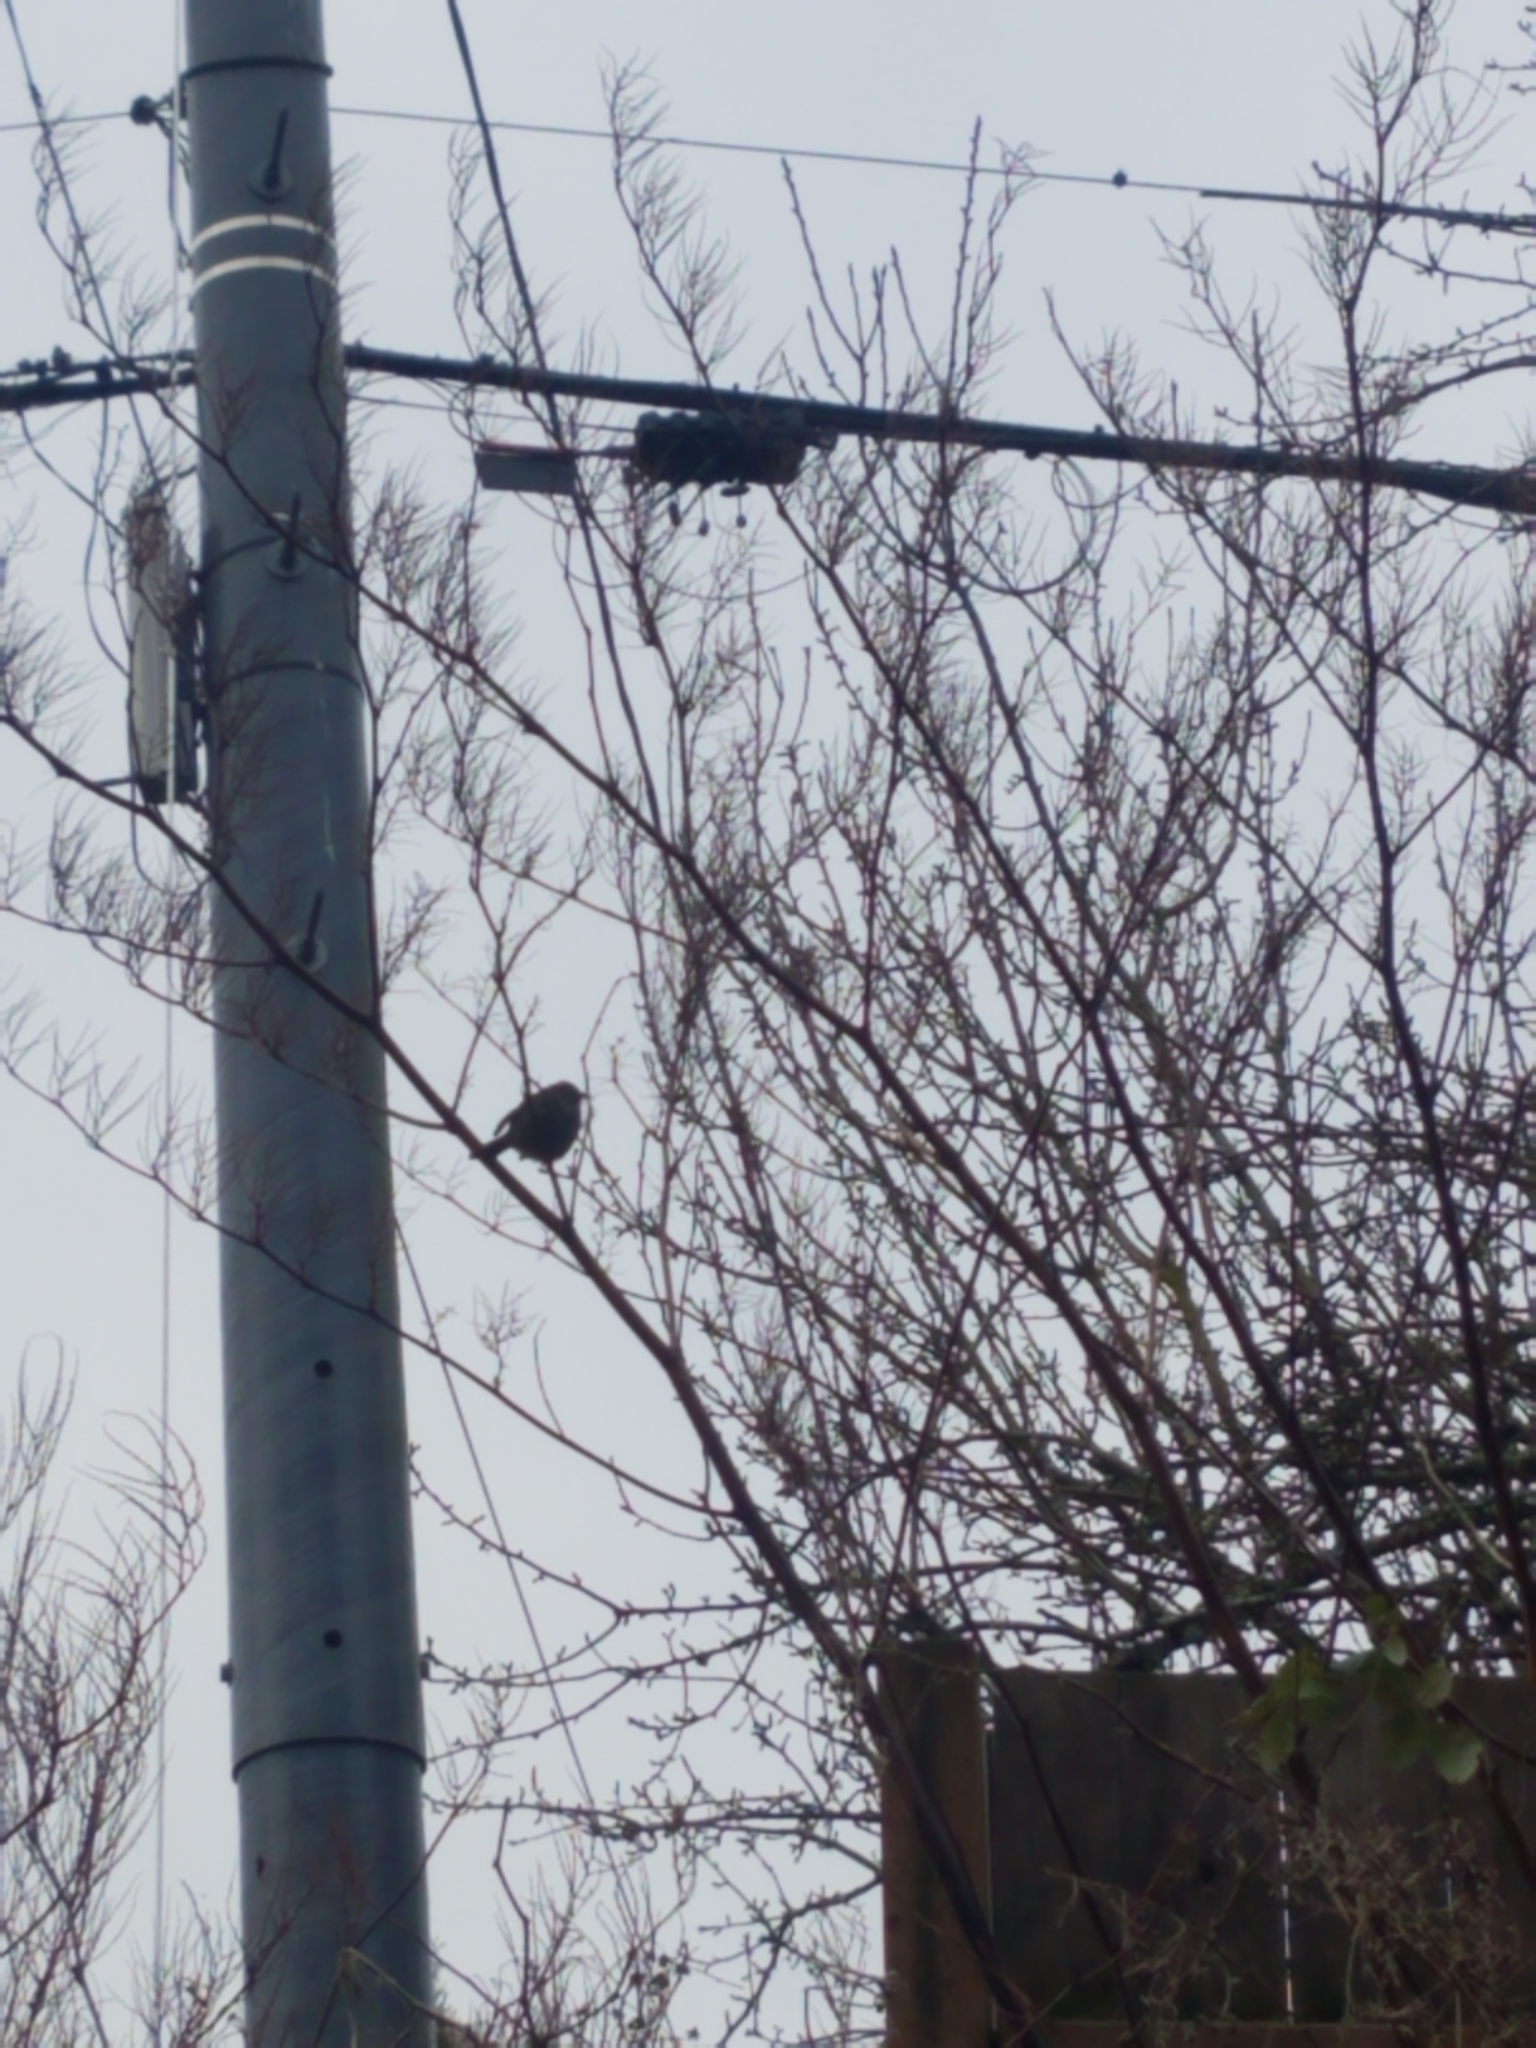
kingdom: Animalia
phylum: Chordata
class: Aves
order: Passeriformes
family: Passerellidae
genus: Melospiza
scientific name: Melospiza melodia
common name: Song sparrow
